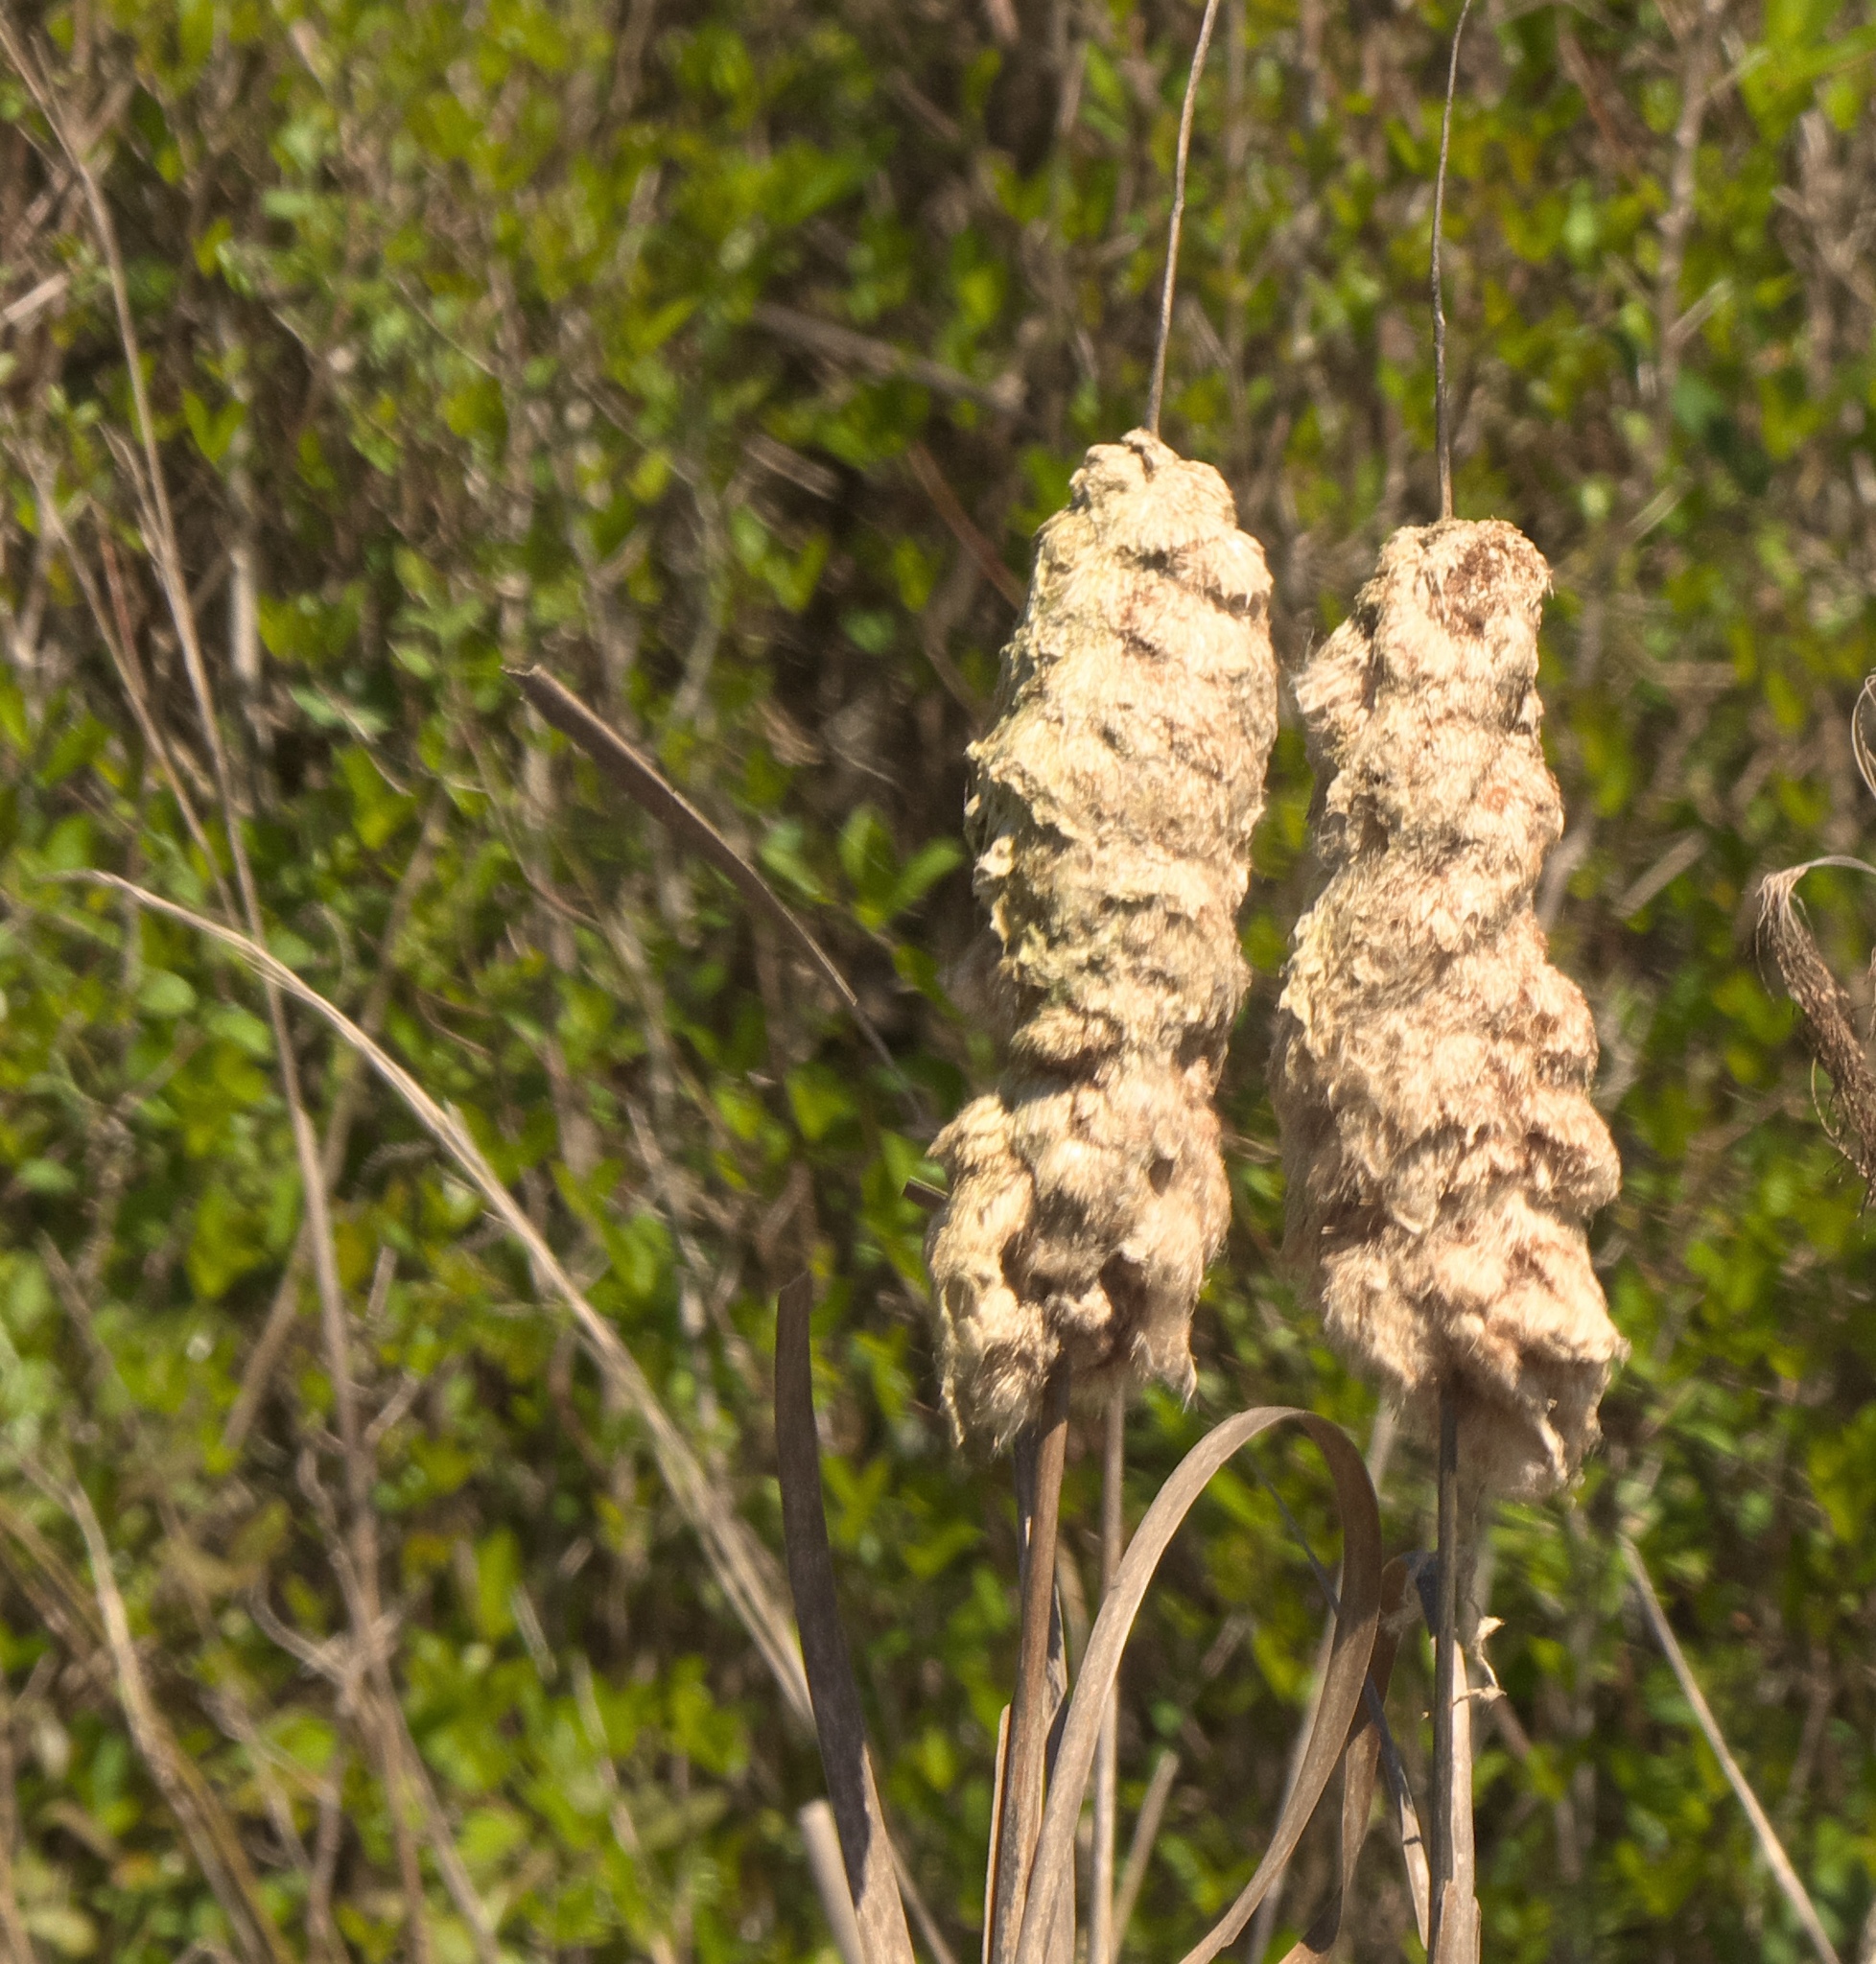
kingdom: Plantae
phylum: Tracheophyta
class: Liliopsida
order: Poales
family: Typhaceae
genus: Typha
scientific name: Typha latifolia
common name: Broadleaf cattail
